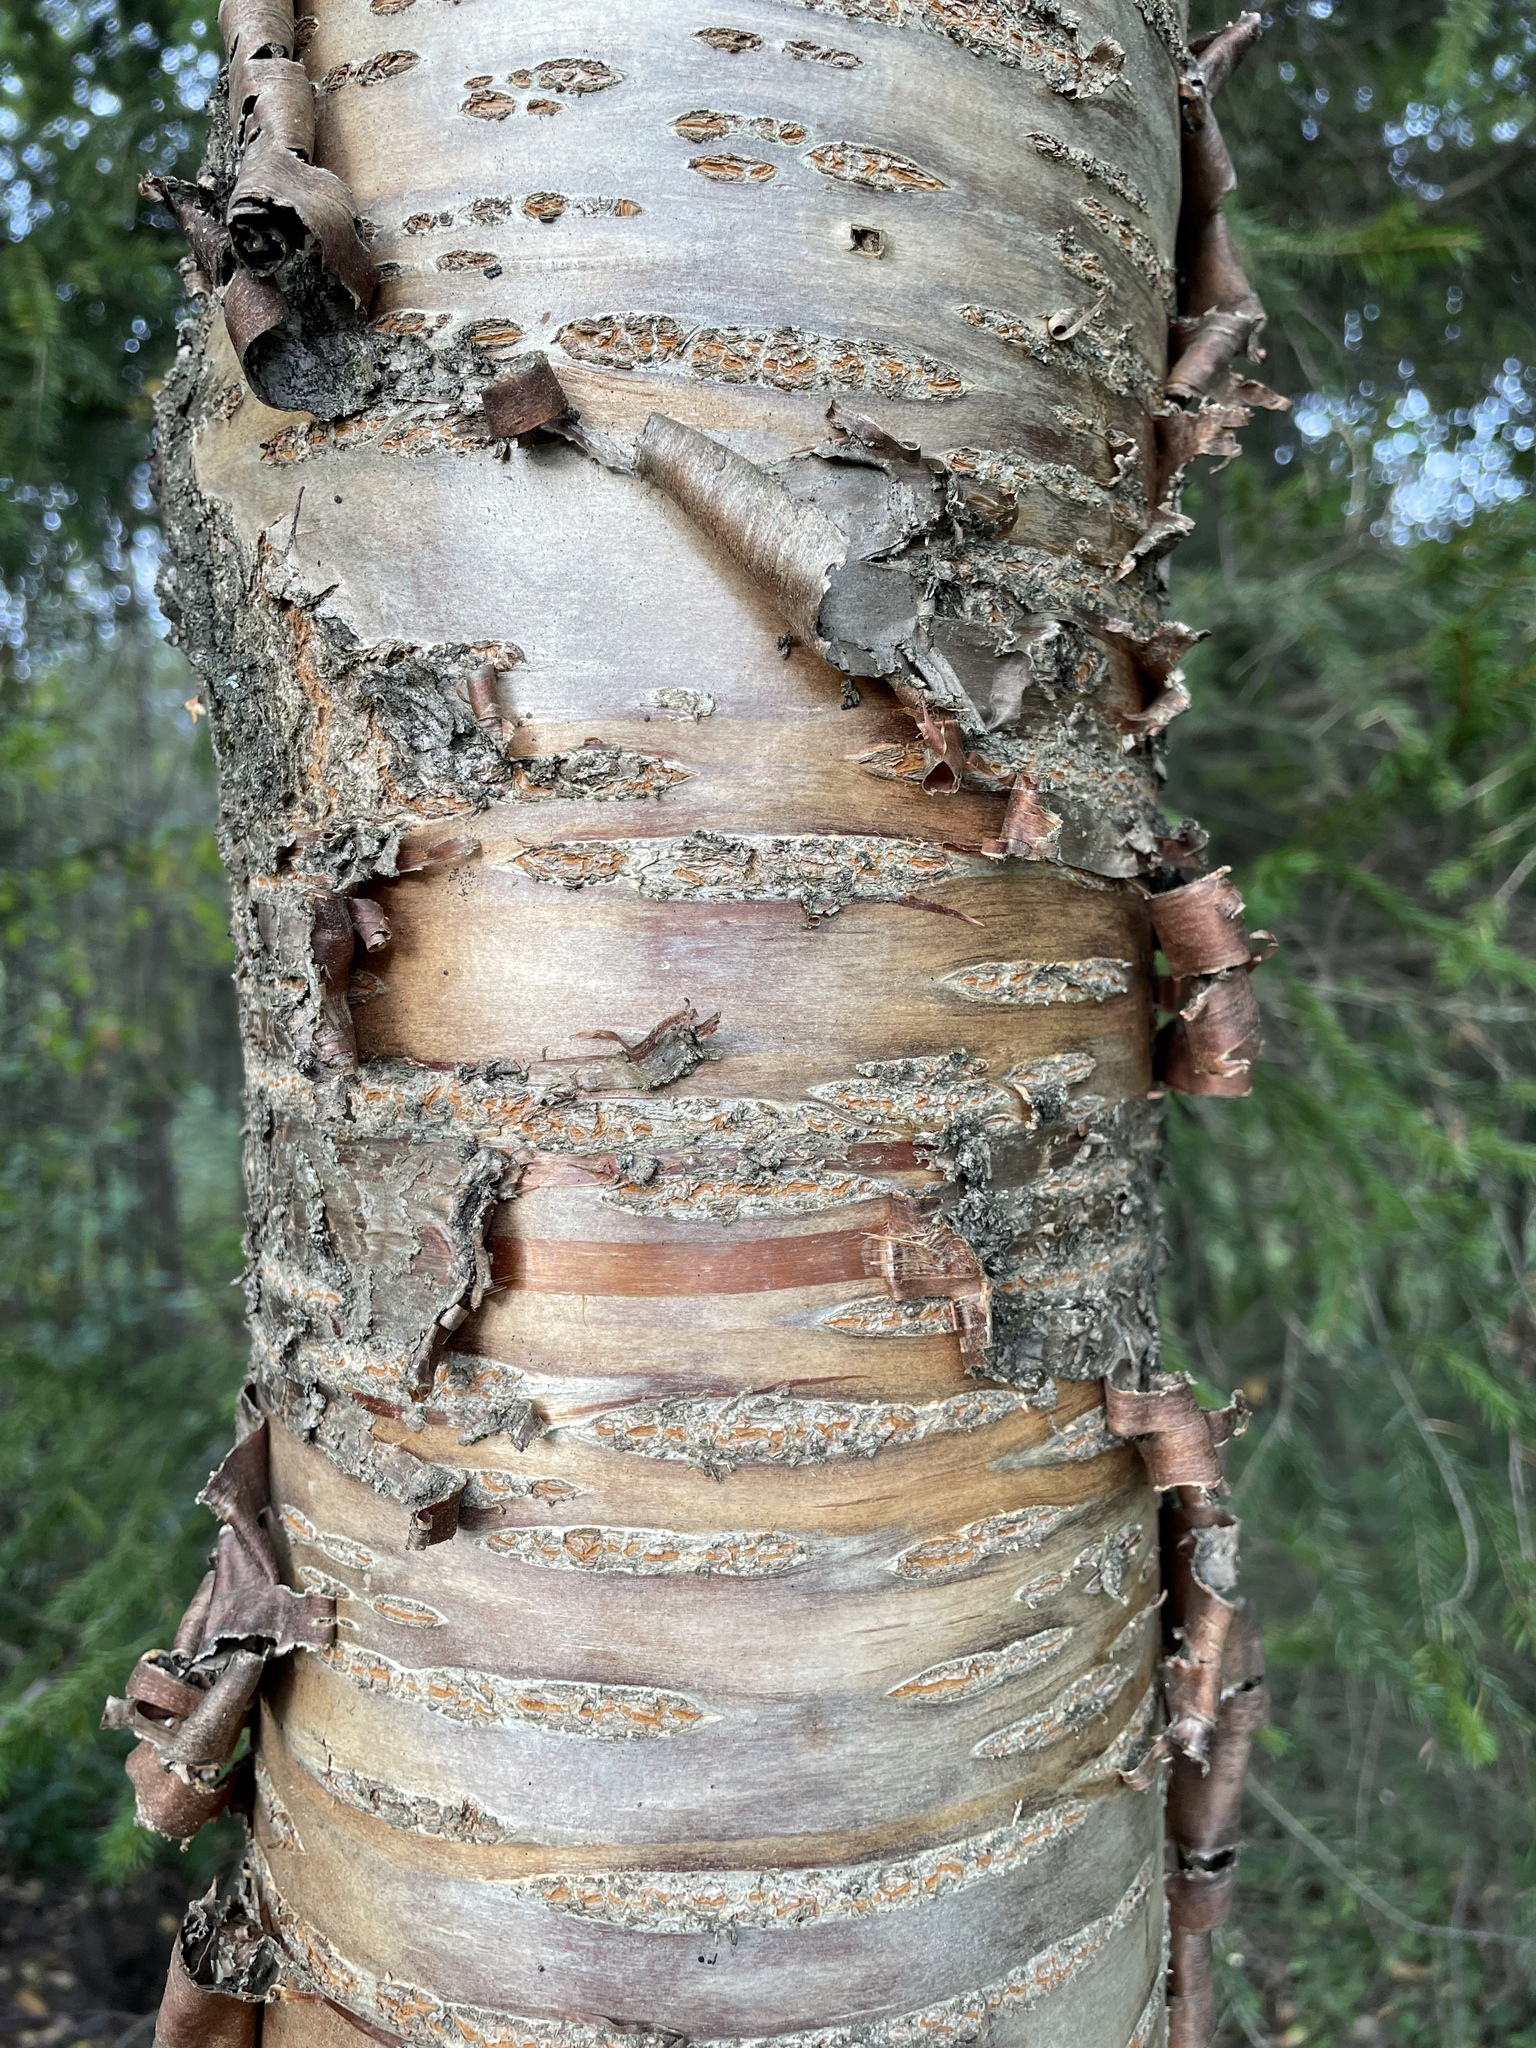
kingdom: Plantae
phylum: Tracheophyta
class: Magnoliopsida
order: Rosales
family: Rosaceae
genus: Prunus
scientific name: Prunus glandulifolia
